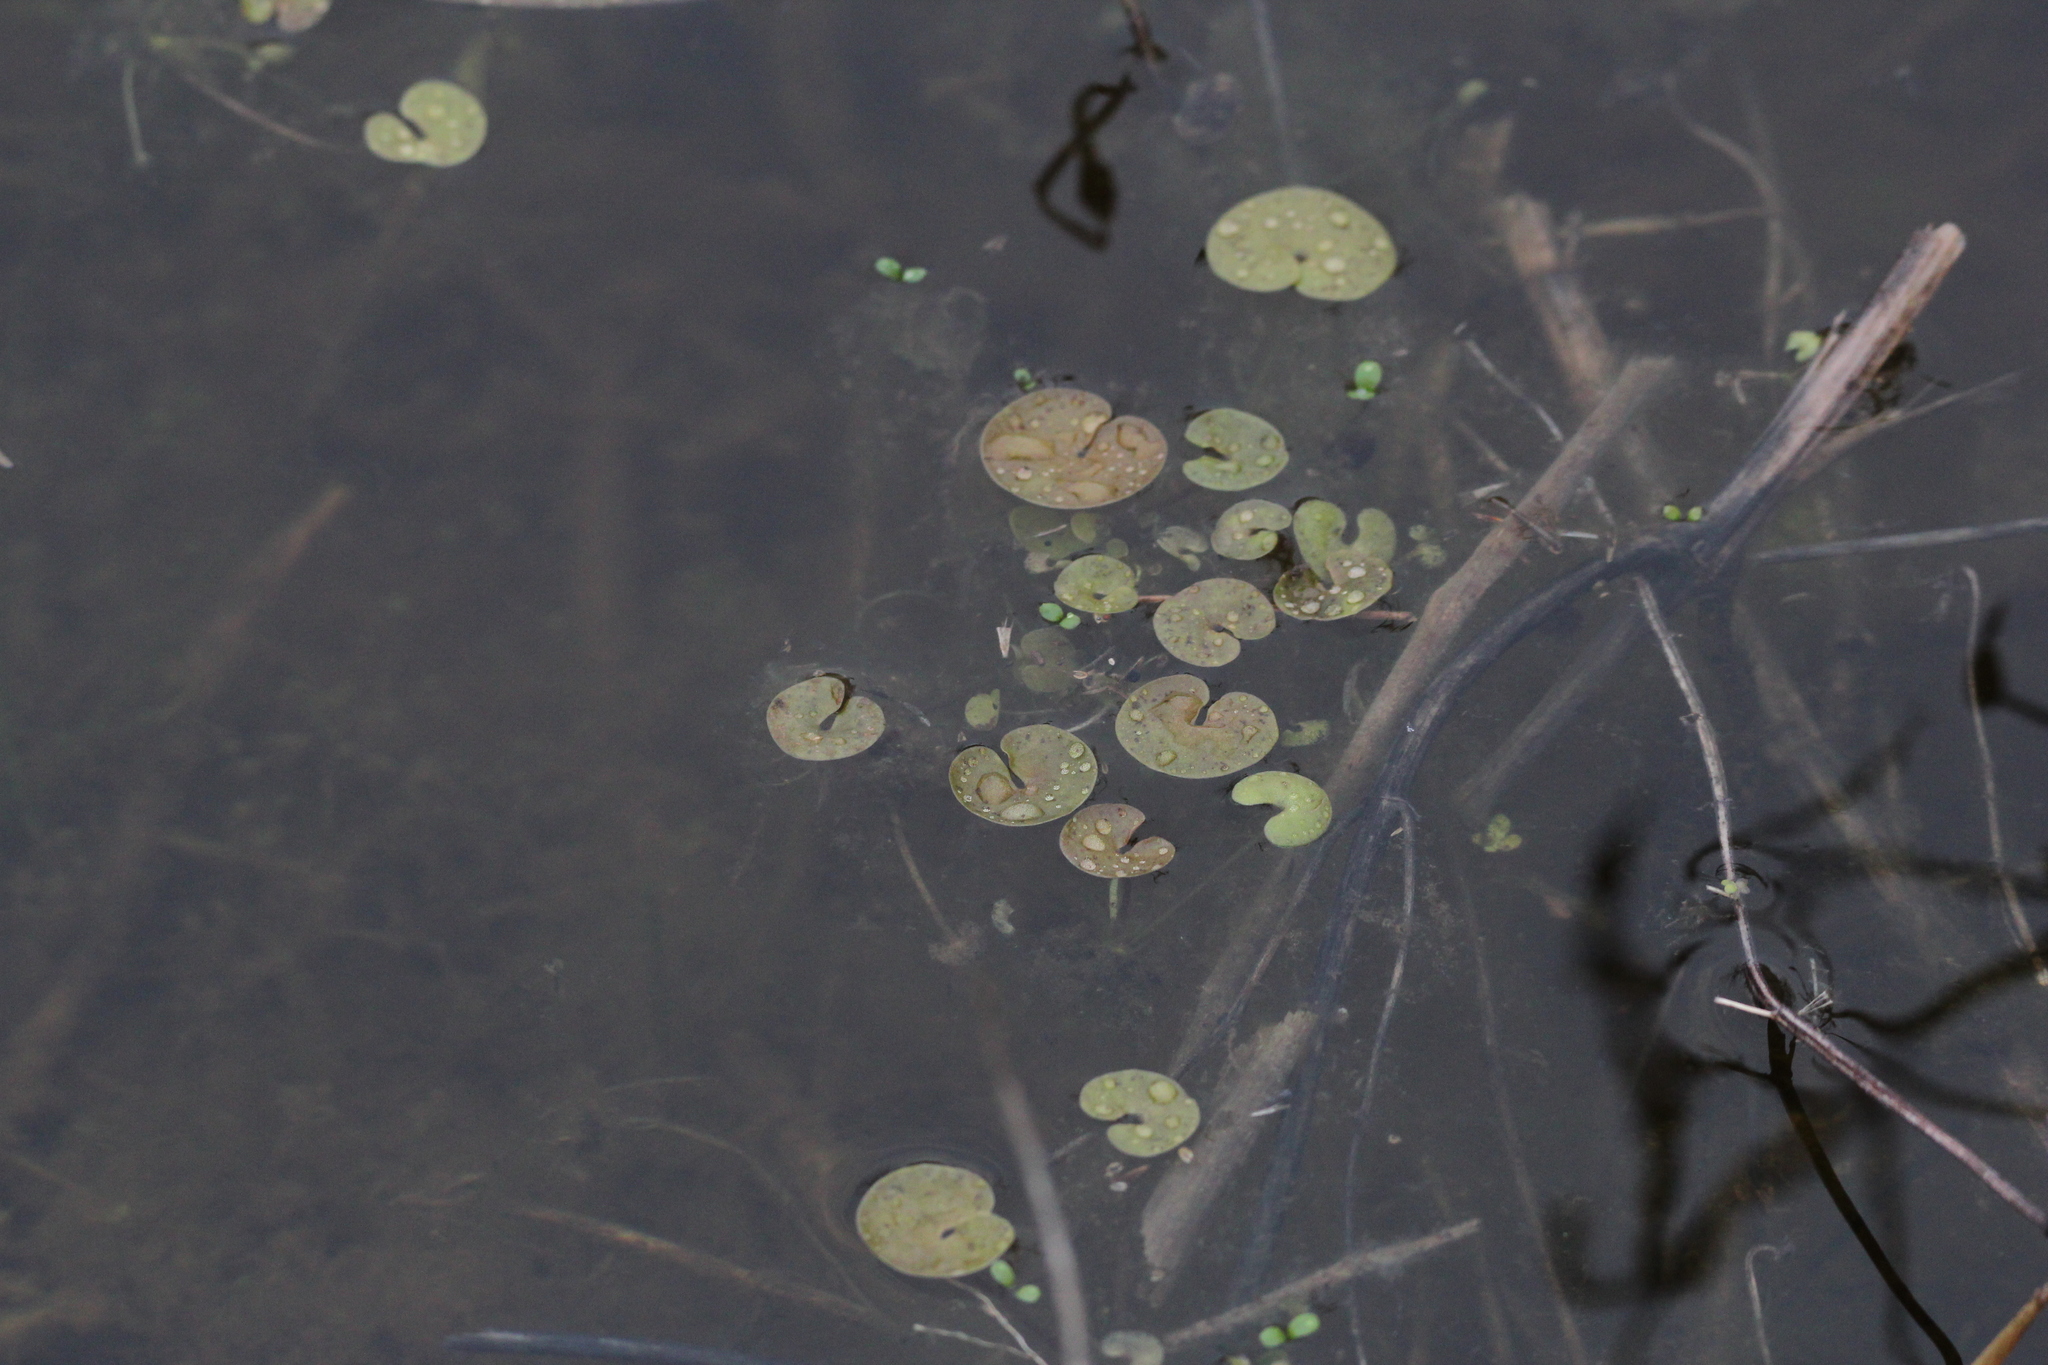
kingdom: Plantae
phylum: Tracheophyta
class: Liliopsida
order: Alismatales
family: Hydrocharitaceae
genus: Hydrocharis
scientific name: Hydrocharis morsus-ranae
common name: Frogbit
